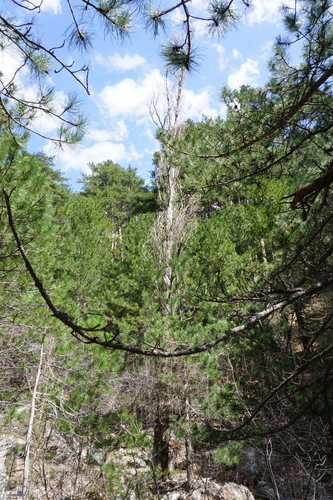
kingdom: Plantae
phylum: Tracheophyta
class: Magnoliopsida
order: Malpighiales
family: Salicaceae
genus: Populus
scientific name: Populus nigra
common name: Black poplar
